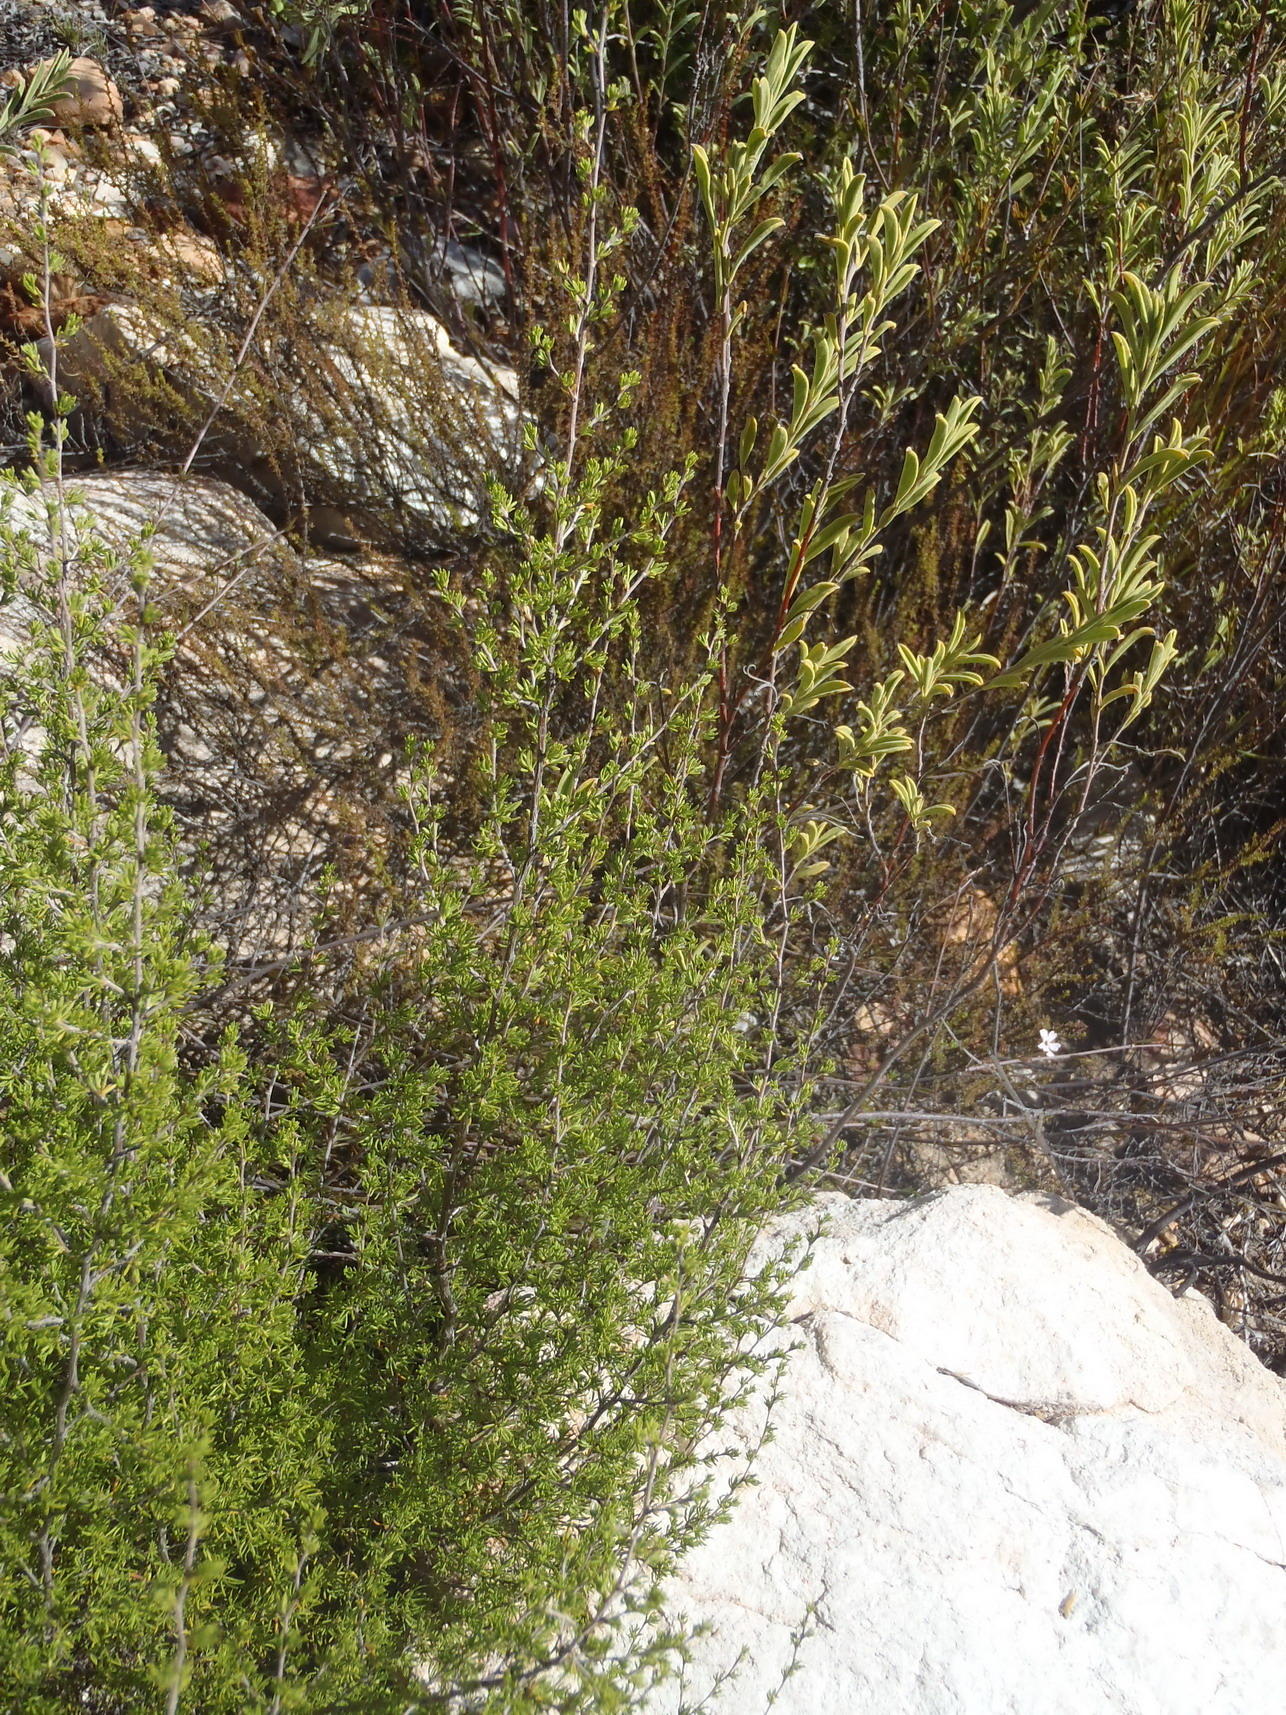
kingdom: Plantae
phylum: Tracheophyta
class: Magnoliopsida
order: Rosales
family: Rosaceae
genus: Cliffortia
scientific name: Cliffortia ramosissima
